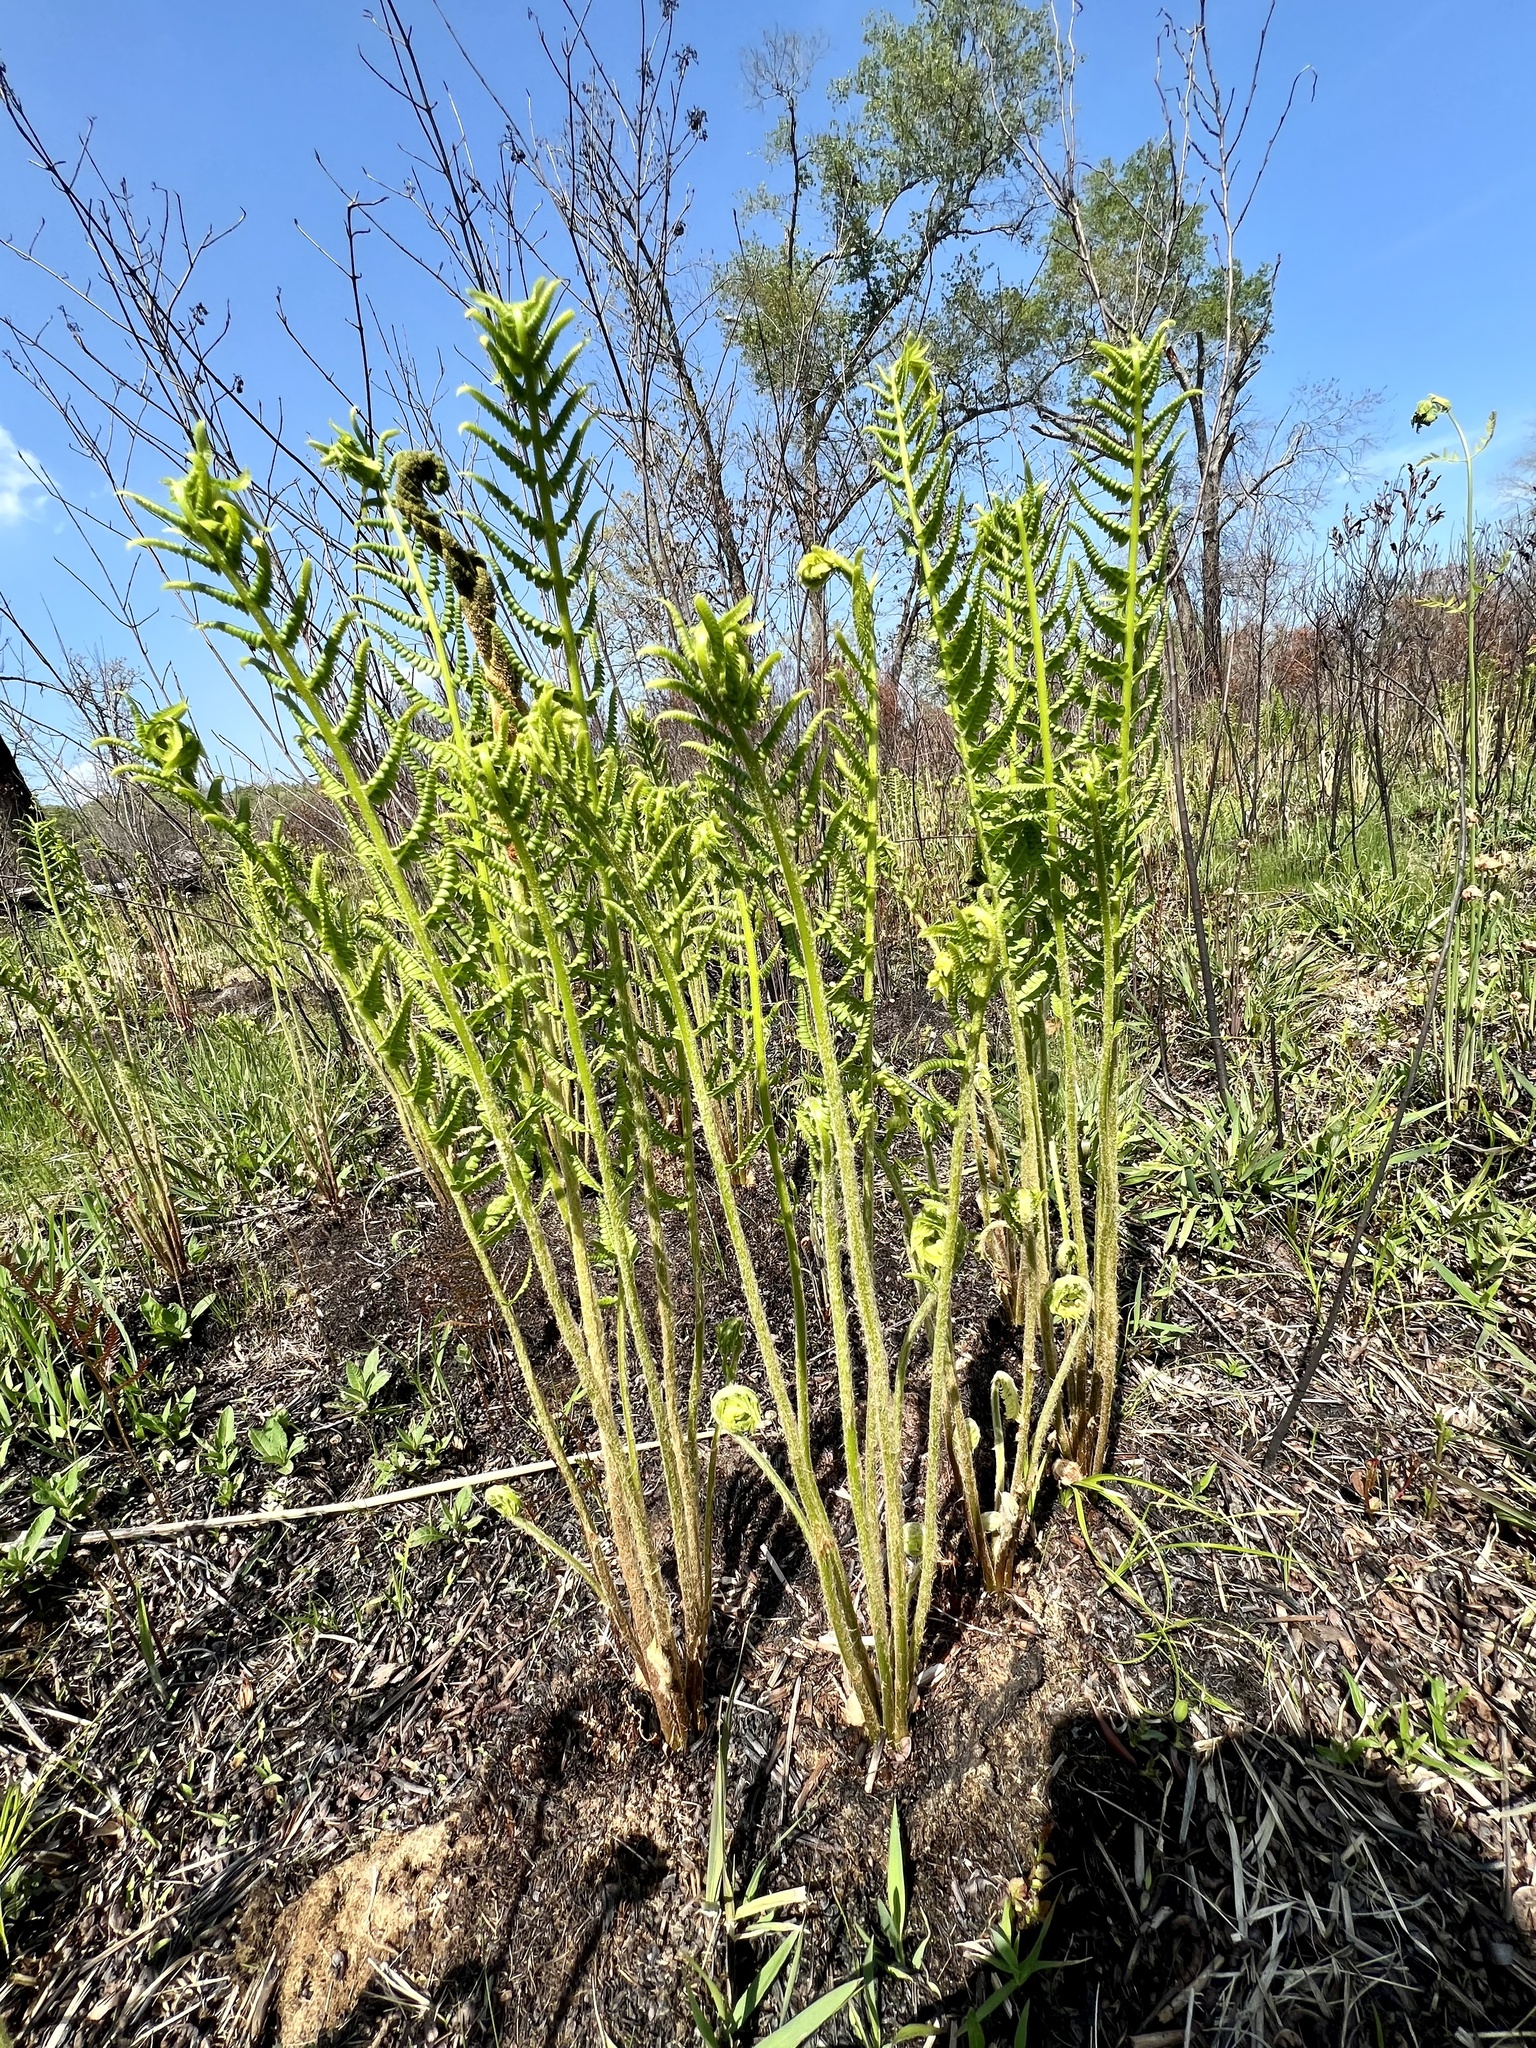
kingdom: Plantae
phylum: Tracheophyta
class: Polypodiopsida
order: Osmundales
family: Osmundaceae
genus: Osmundastrum
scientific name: Osmundastrum cinnamomeum
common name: Cinnamon fern
